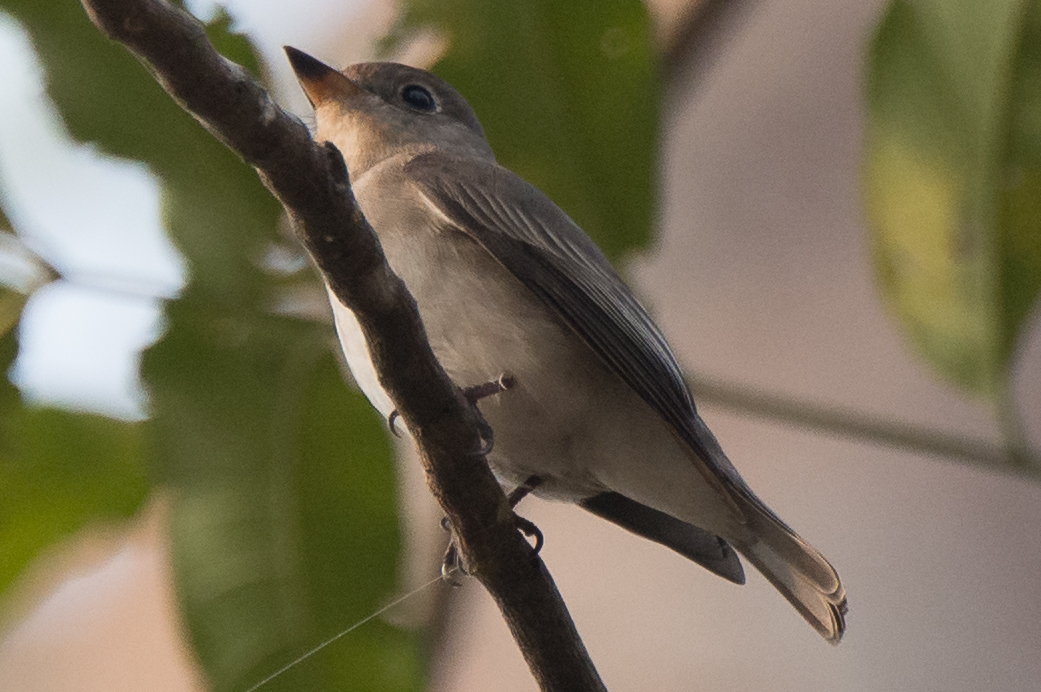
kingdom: Animalia
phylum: Chordata
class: Aves
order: Passeriformes
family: Muscicapidae
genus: Muscicapa
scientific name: Muscicapa latirostris
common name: Asian brown flycatcher
